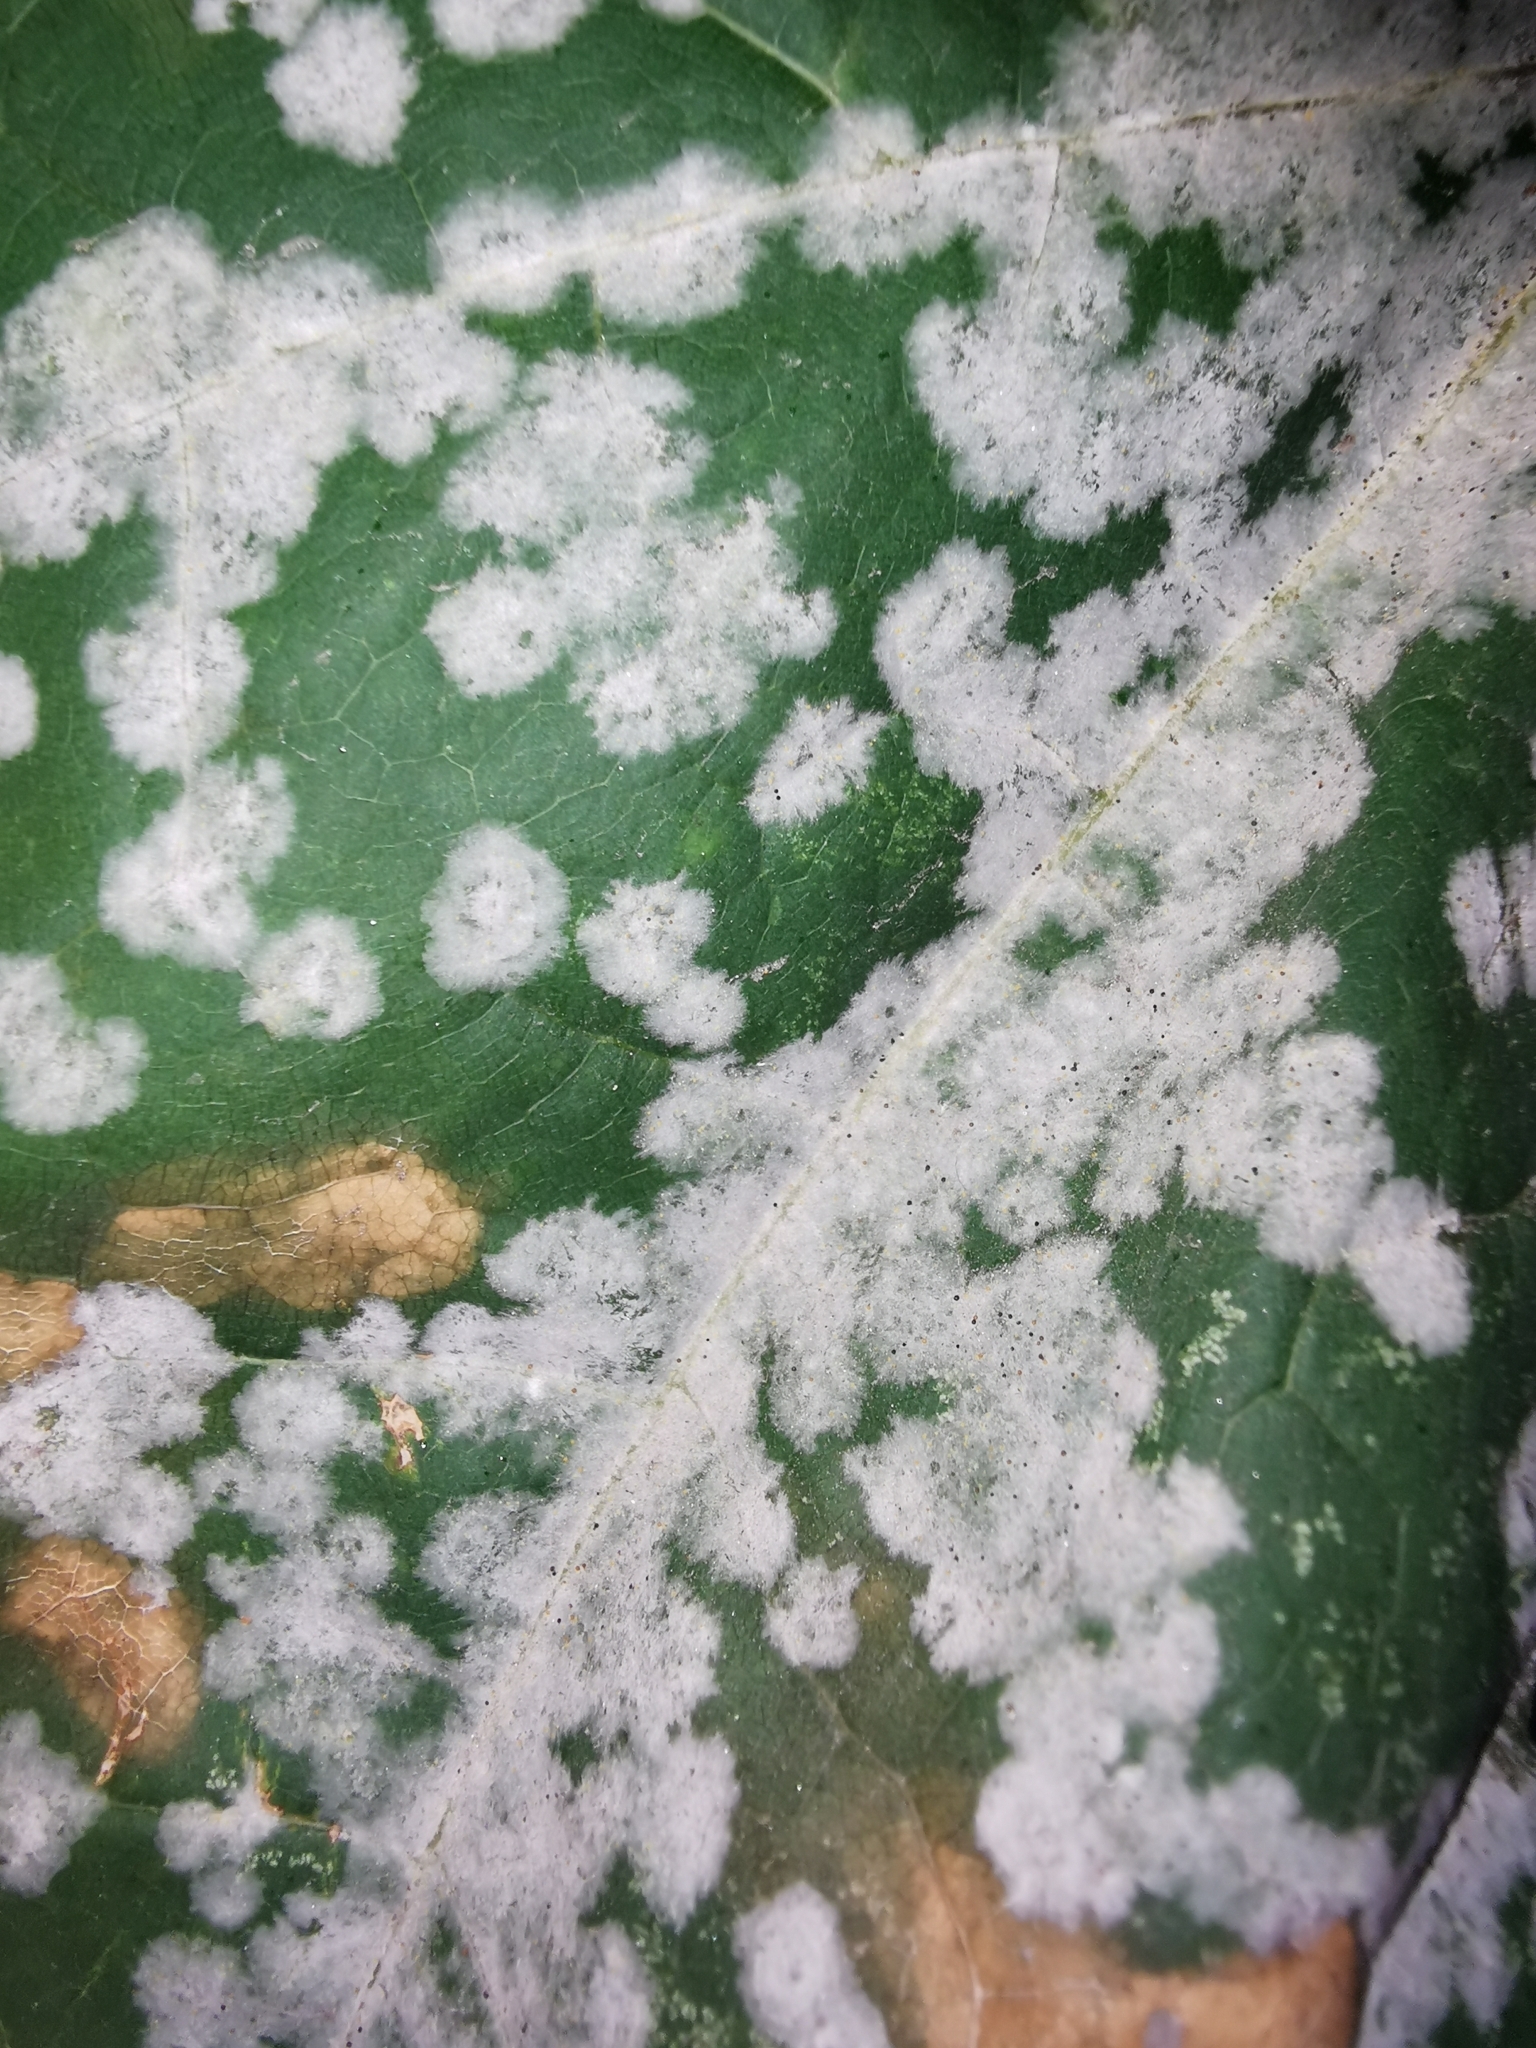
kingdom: Fungi
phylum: Ascomycota
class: Leotiomycetes
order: Helotiales
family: Erysiphaceae
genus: Sawadaea
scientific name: Sawadaea tulasnei
